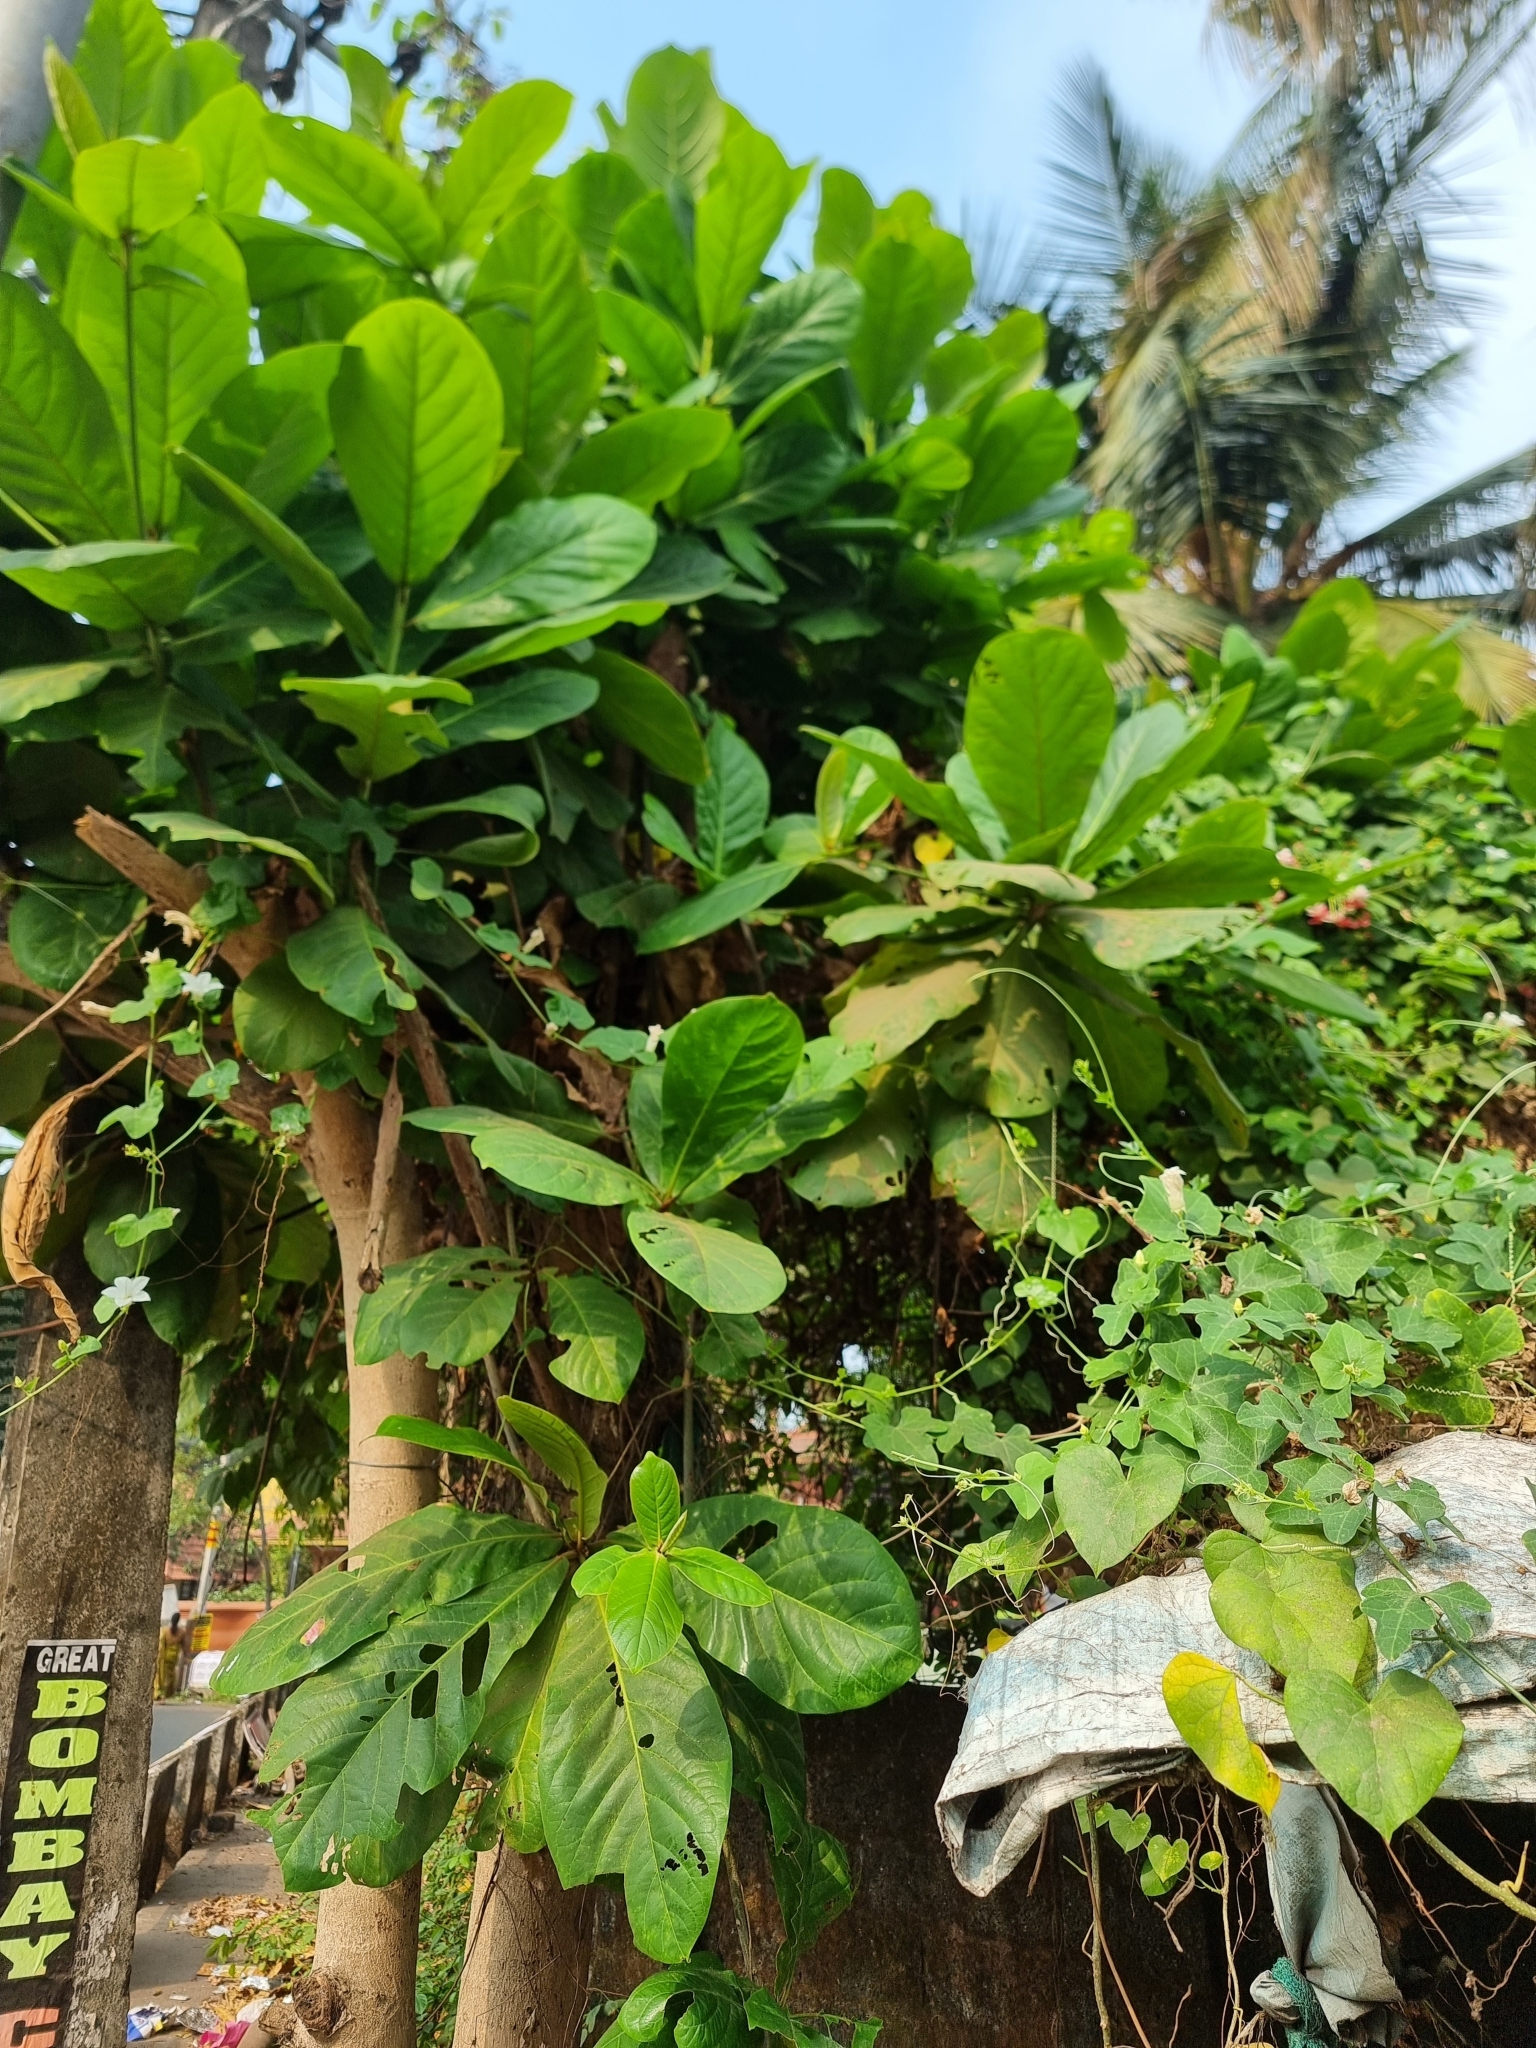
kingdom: Plantae
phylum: Tracheophyta
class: Magnoliopsida
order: Myrtales
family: Combretaceae
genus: Terminalia
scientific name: Terminalia catappa
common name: Tropical almond
